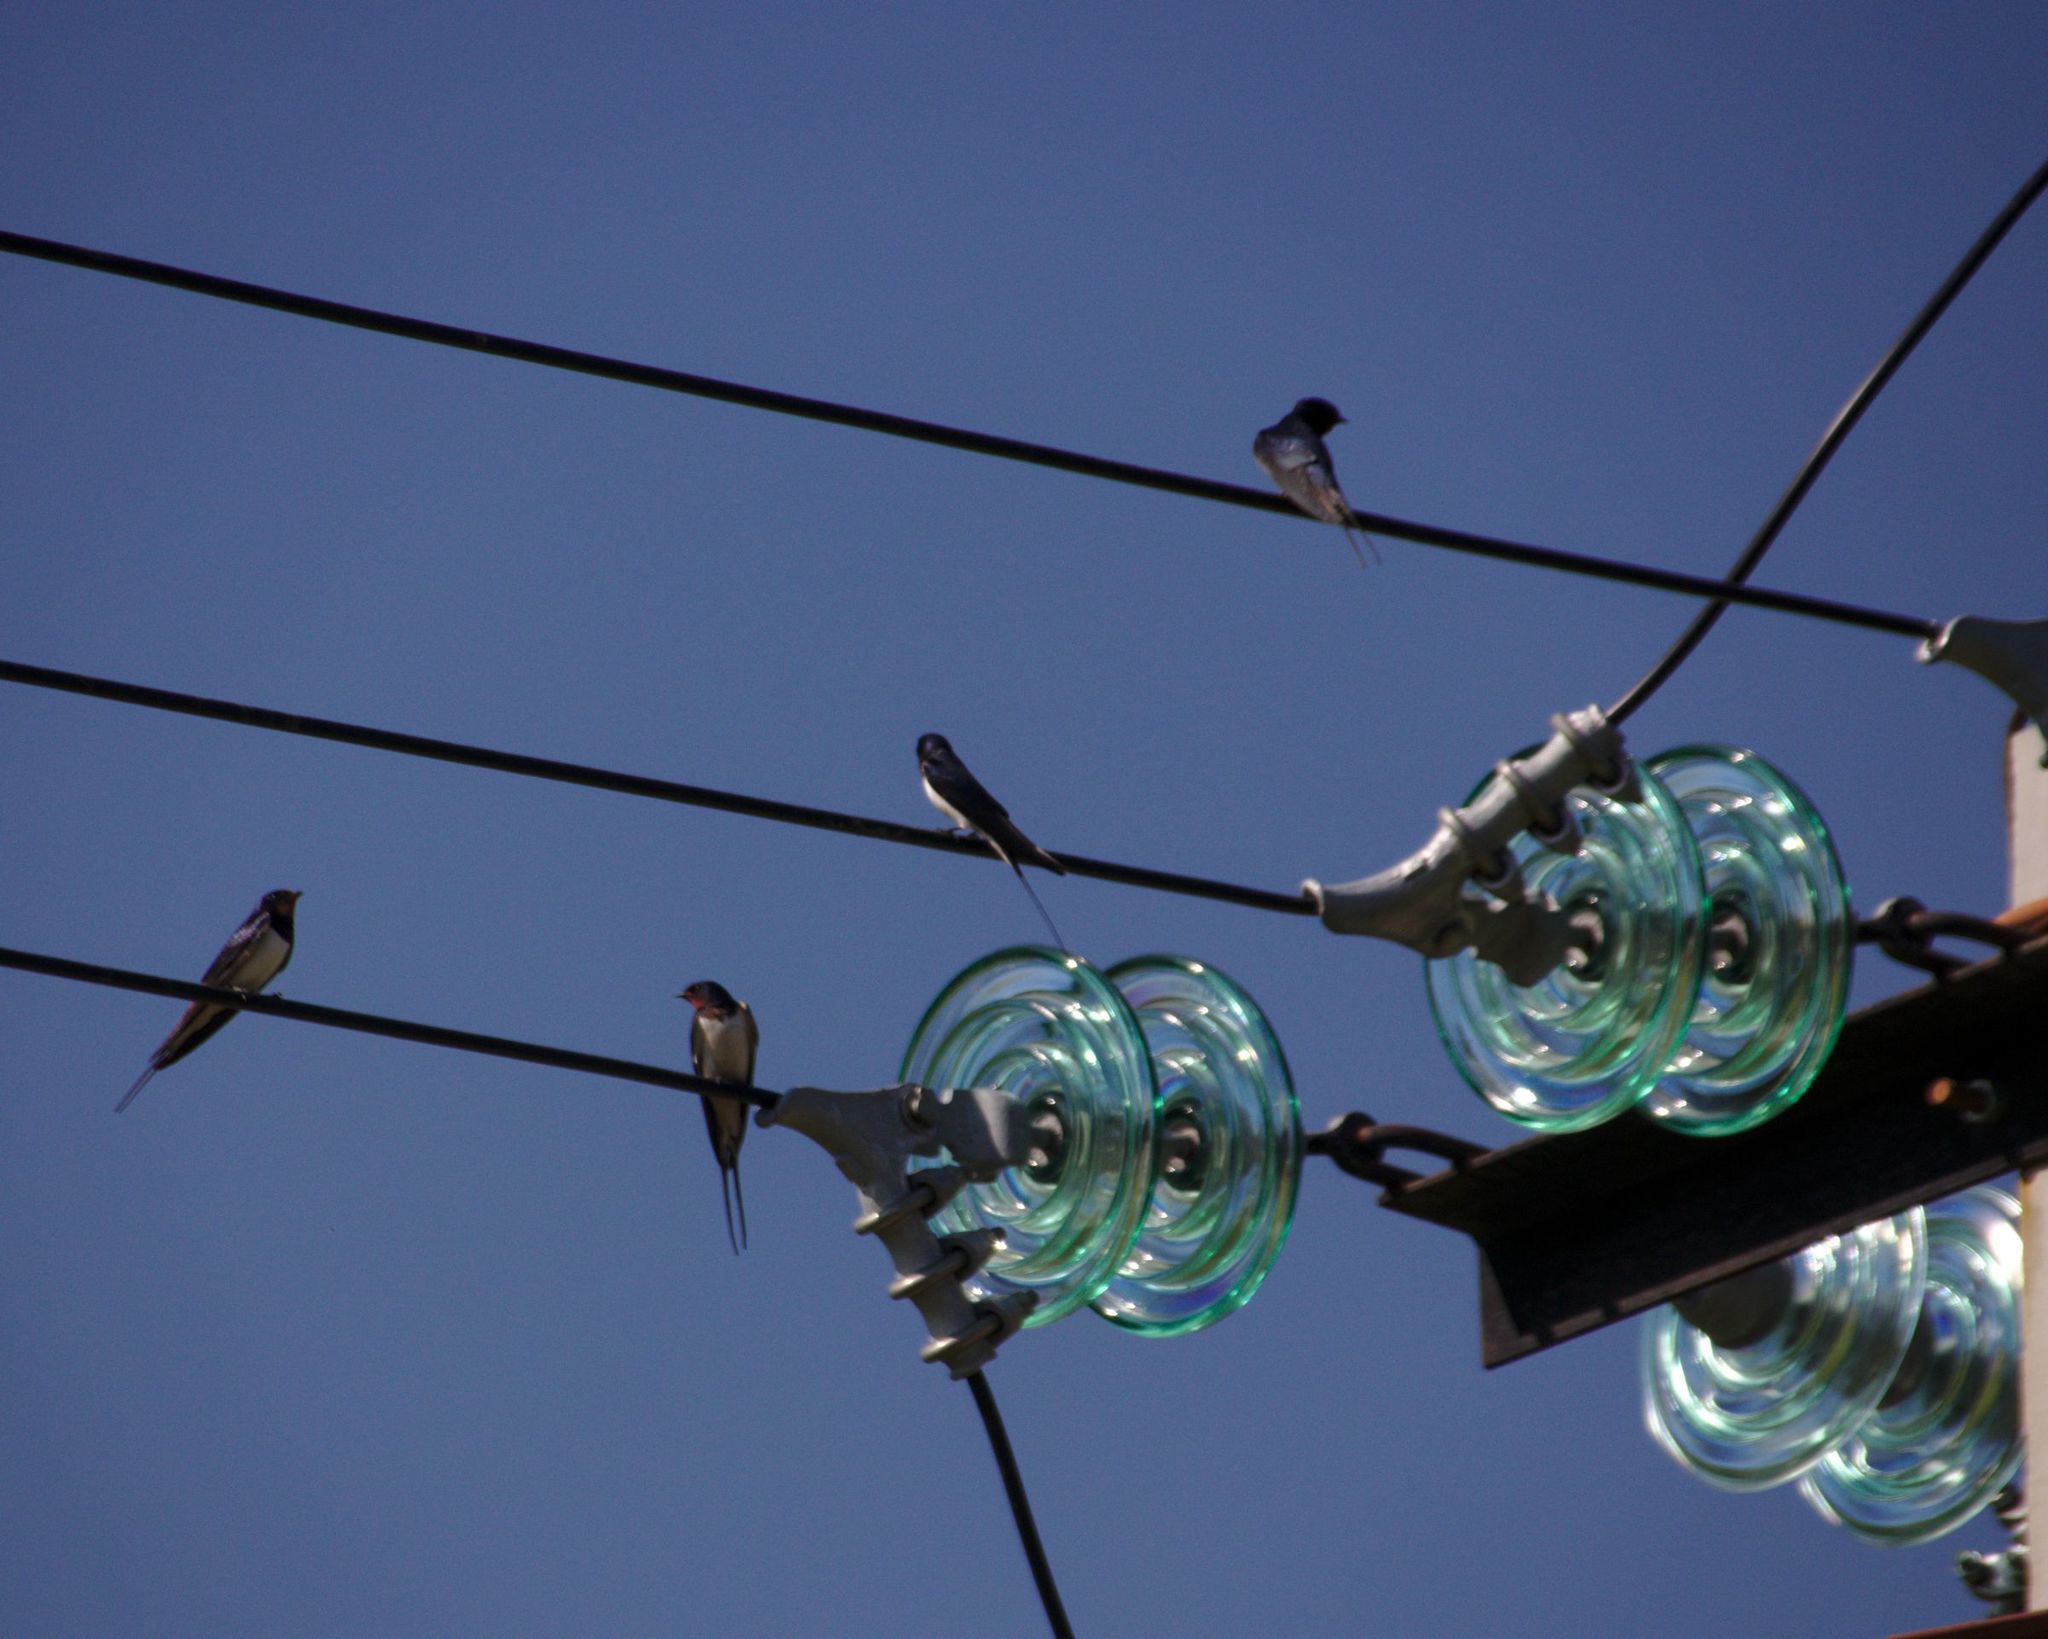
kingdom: Animalia
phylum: Chordata
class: Aves
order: Passeriformes
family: Hirundinidae
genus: Hirundo
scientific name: Hirundo rustica
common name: Barn swallow
